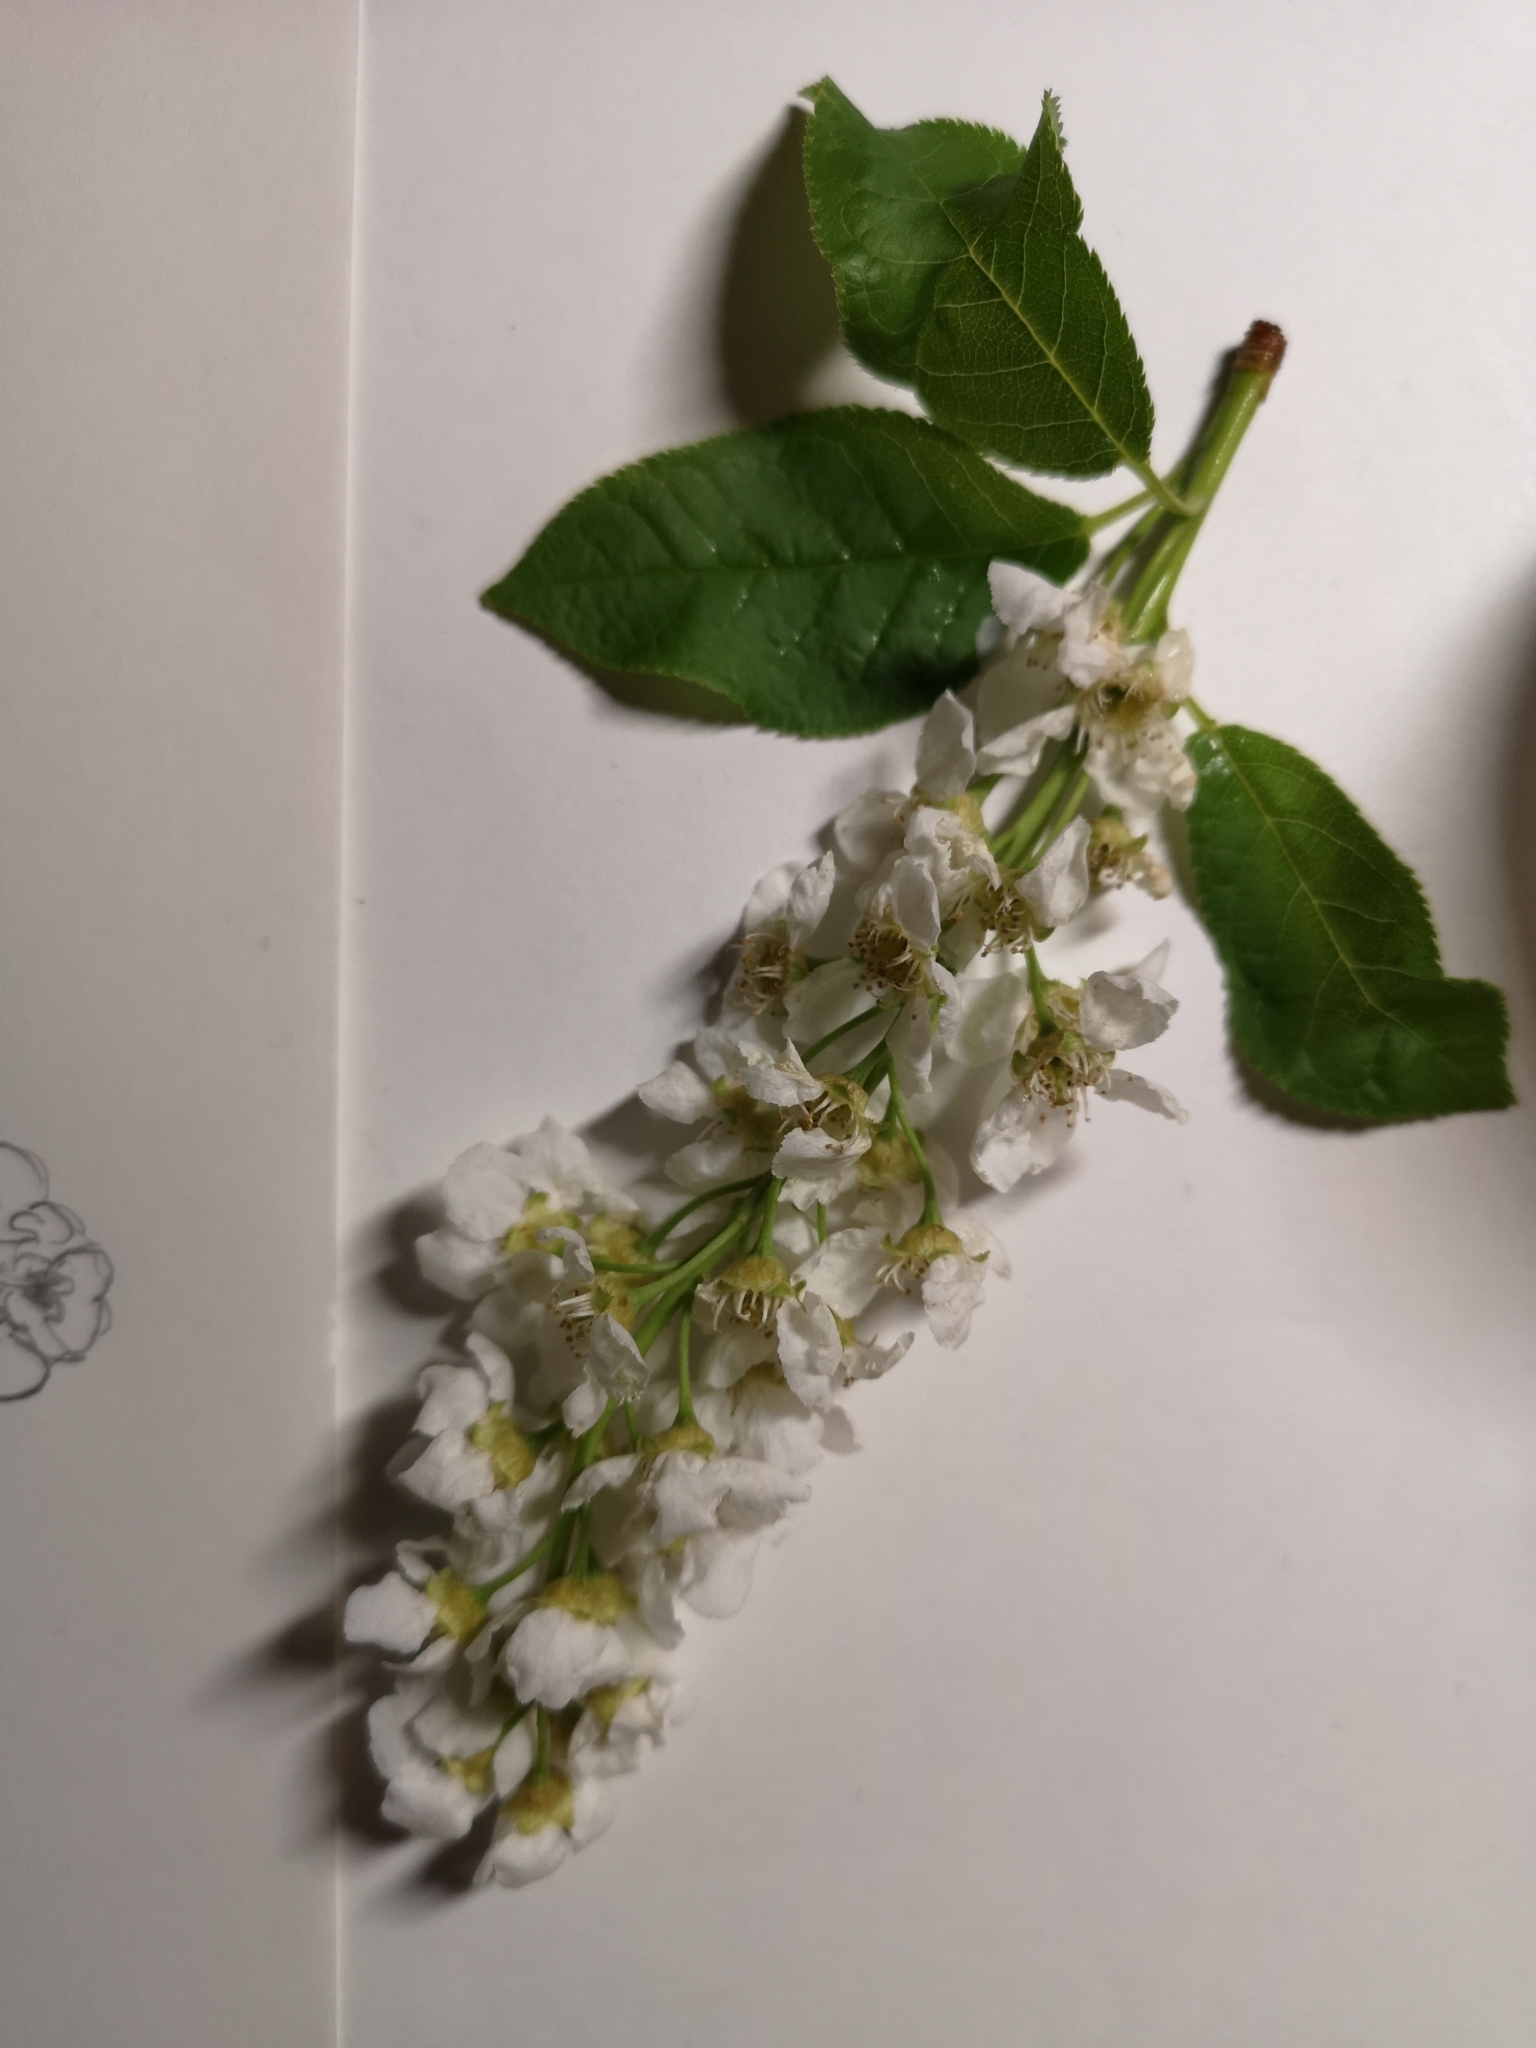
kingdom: Plantae
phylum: Tracheophyta
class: Magnoliopsida
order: Rosales
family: Rosaceae
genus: Prunus
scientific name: Prunus padus
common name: Bird cherry
